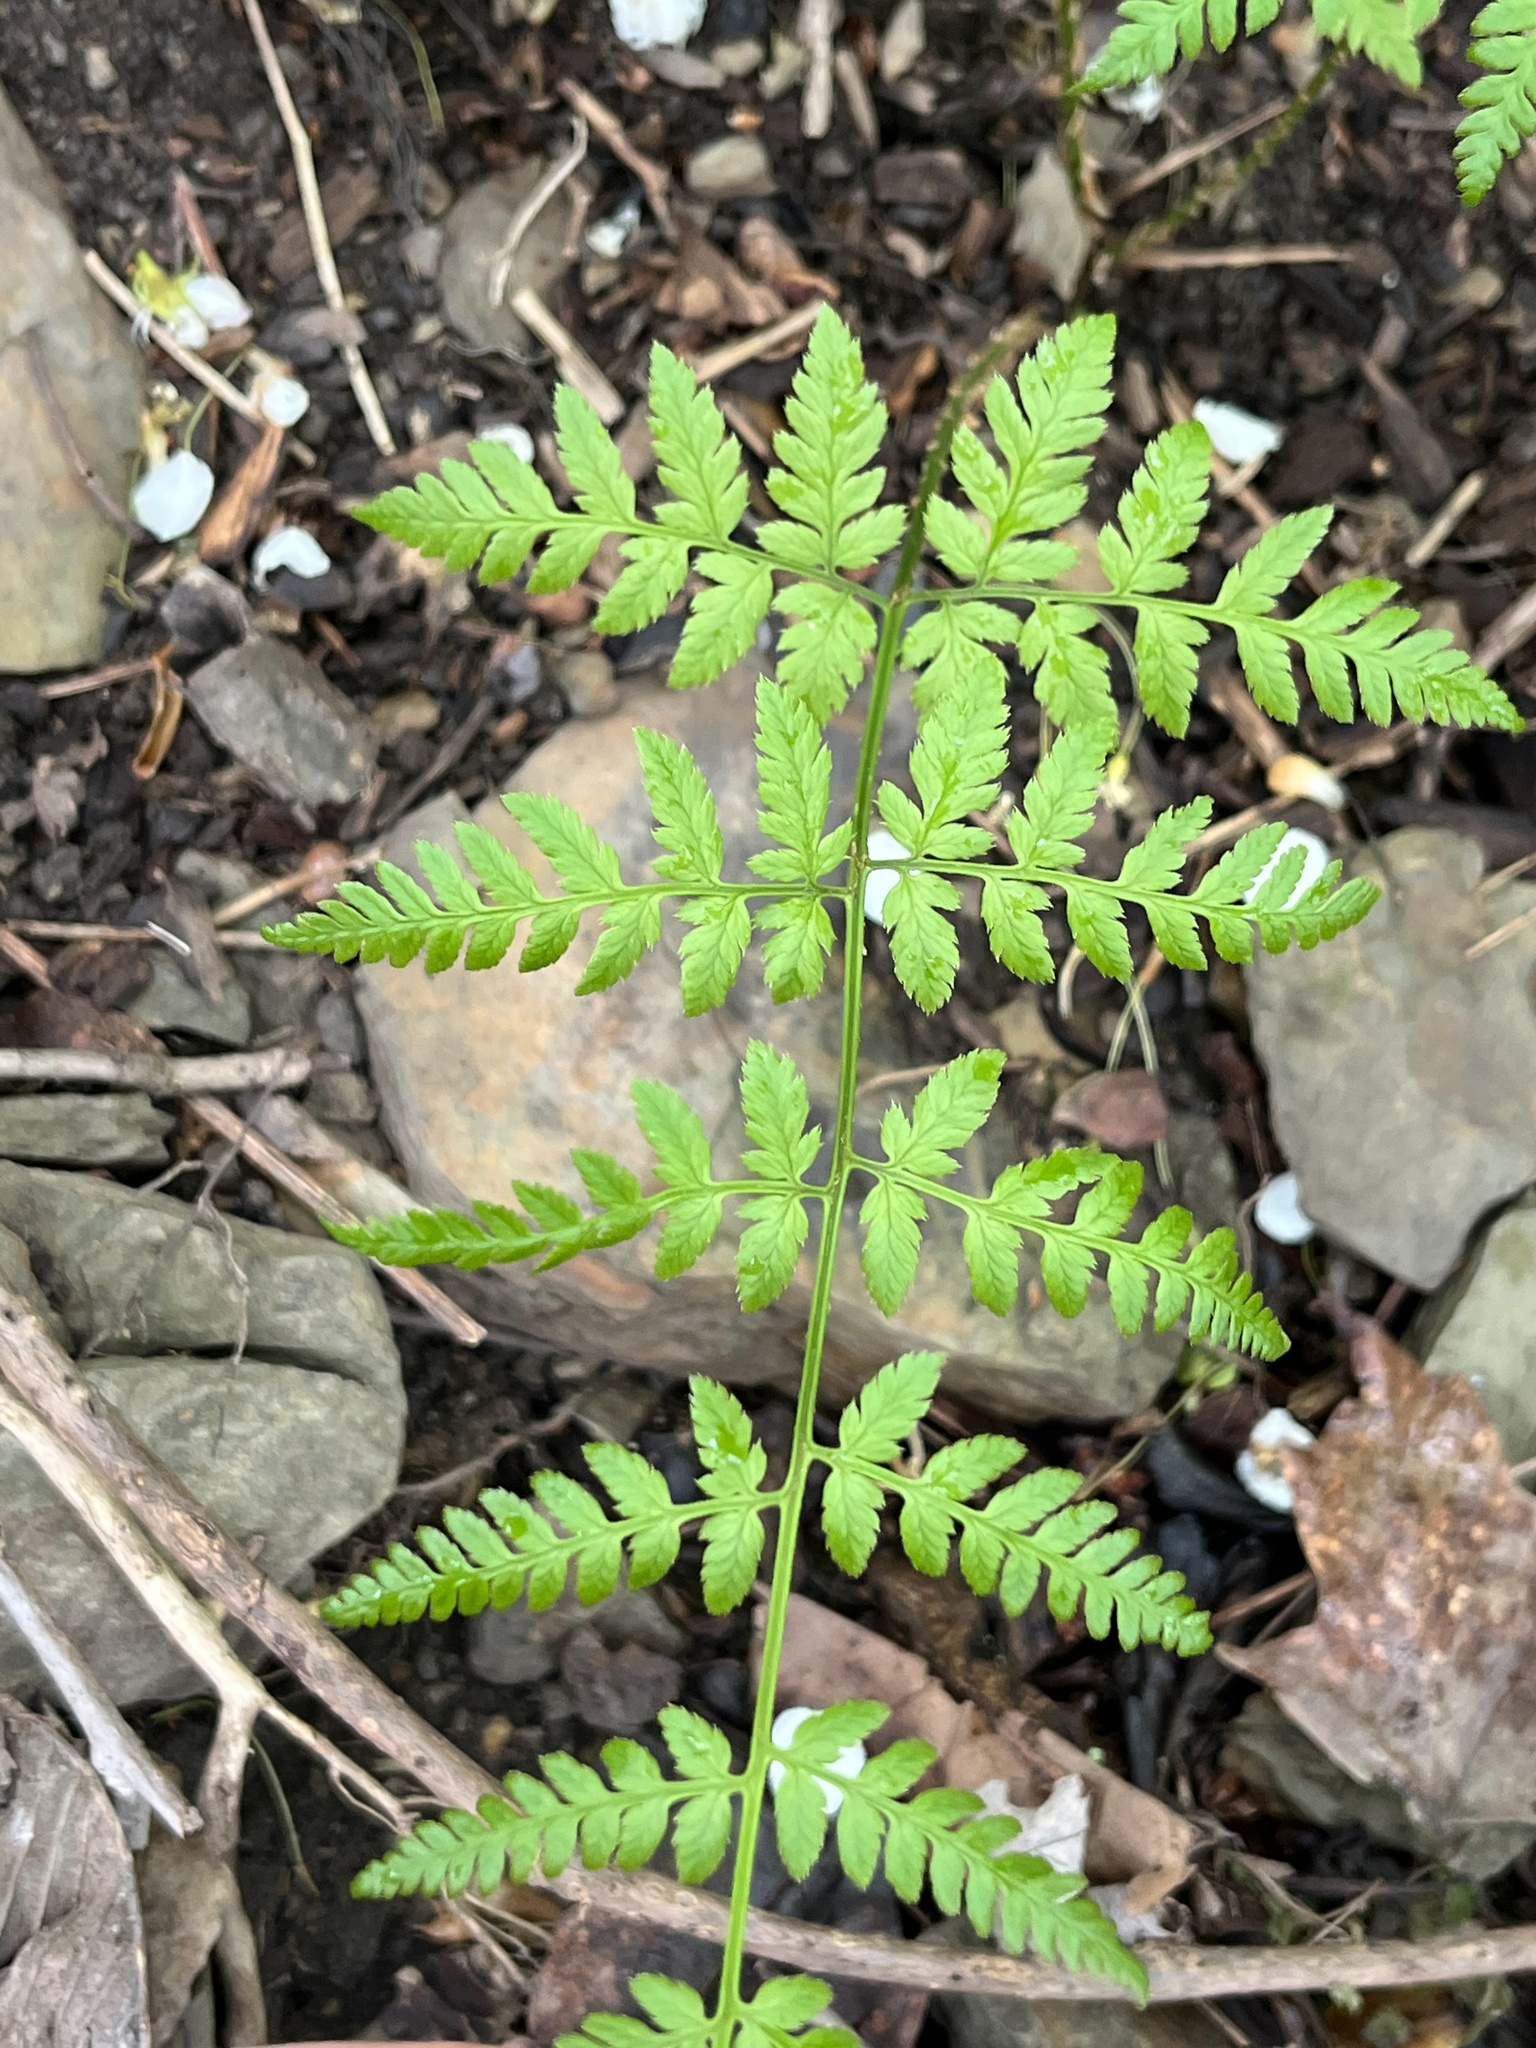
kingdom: Plantae
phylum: Tracheophyta
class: Polypodiopsida
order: Polypodiales
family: Dryopteridaceae
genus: Dryopteris
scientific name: Dryopteris carthusiana
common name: Narrow buckler-fern
